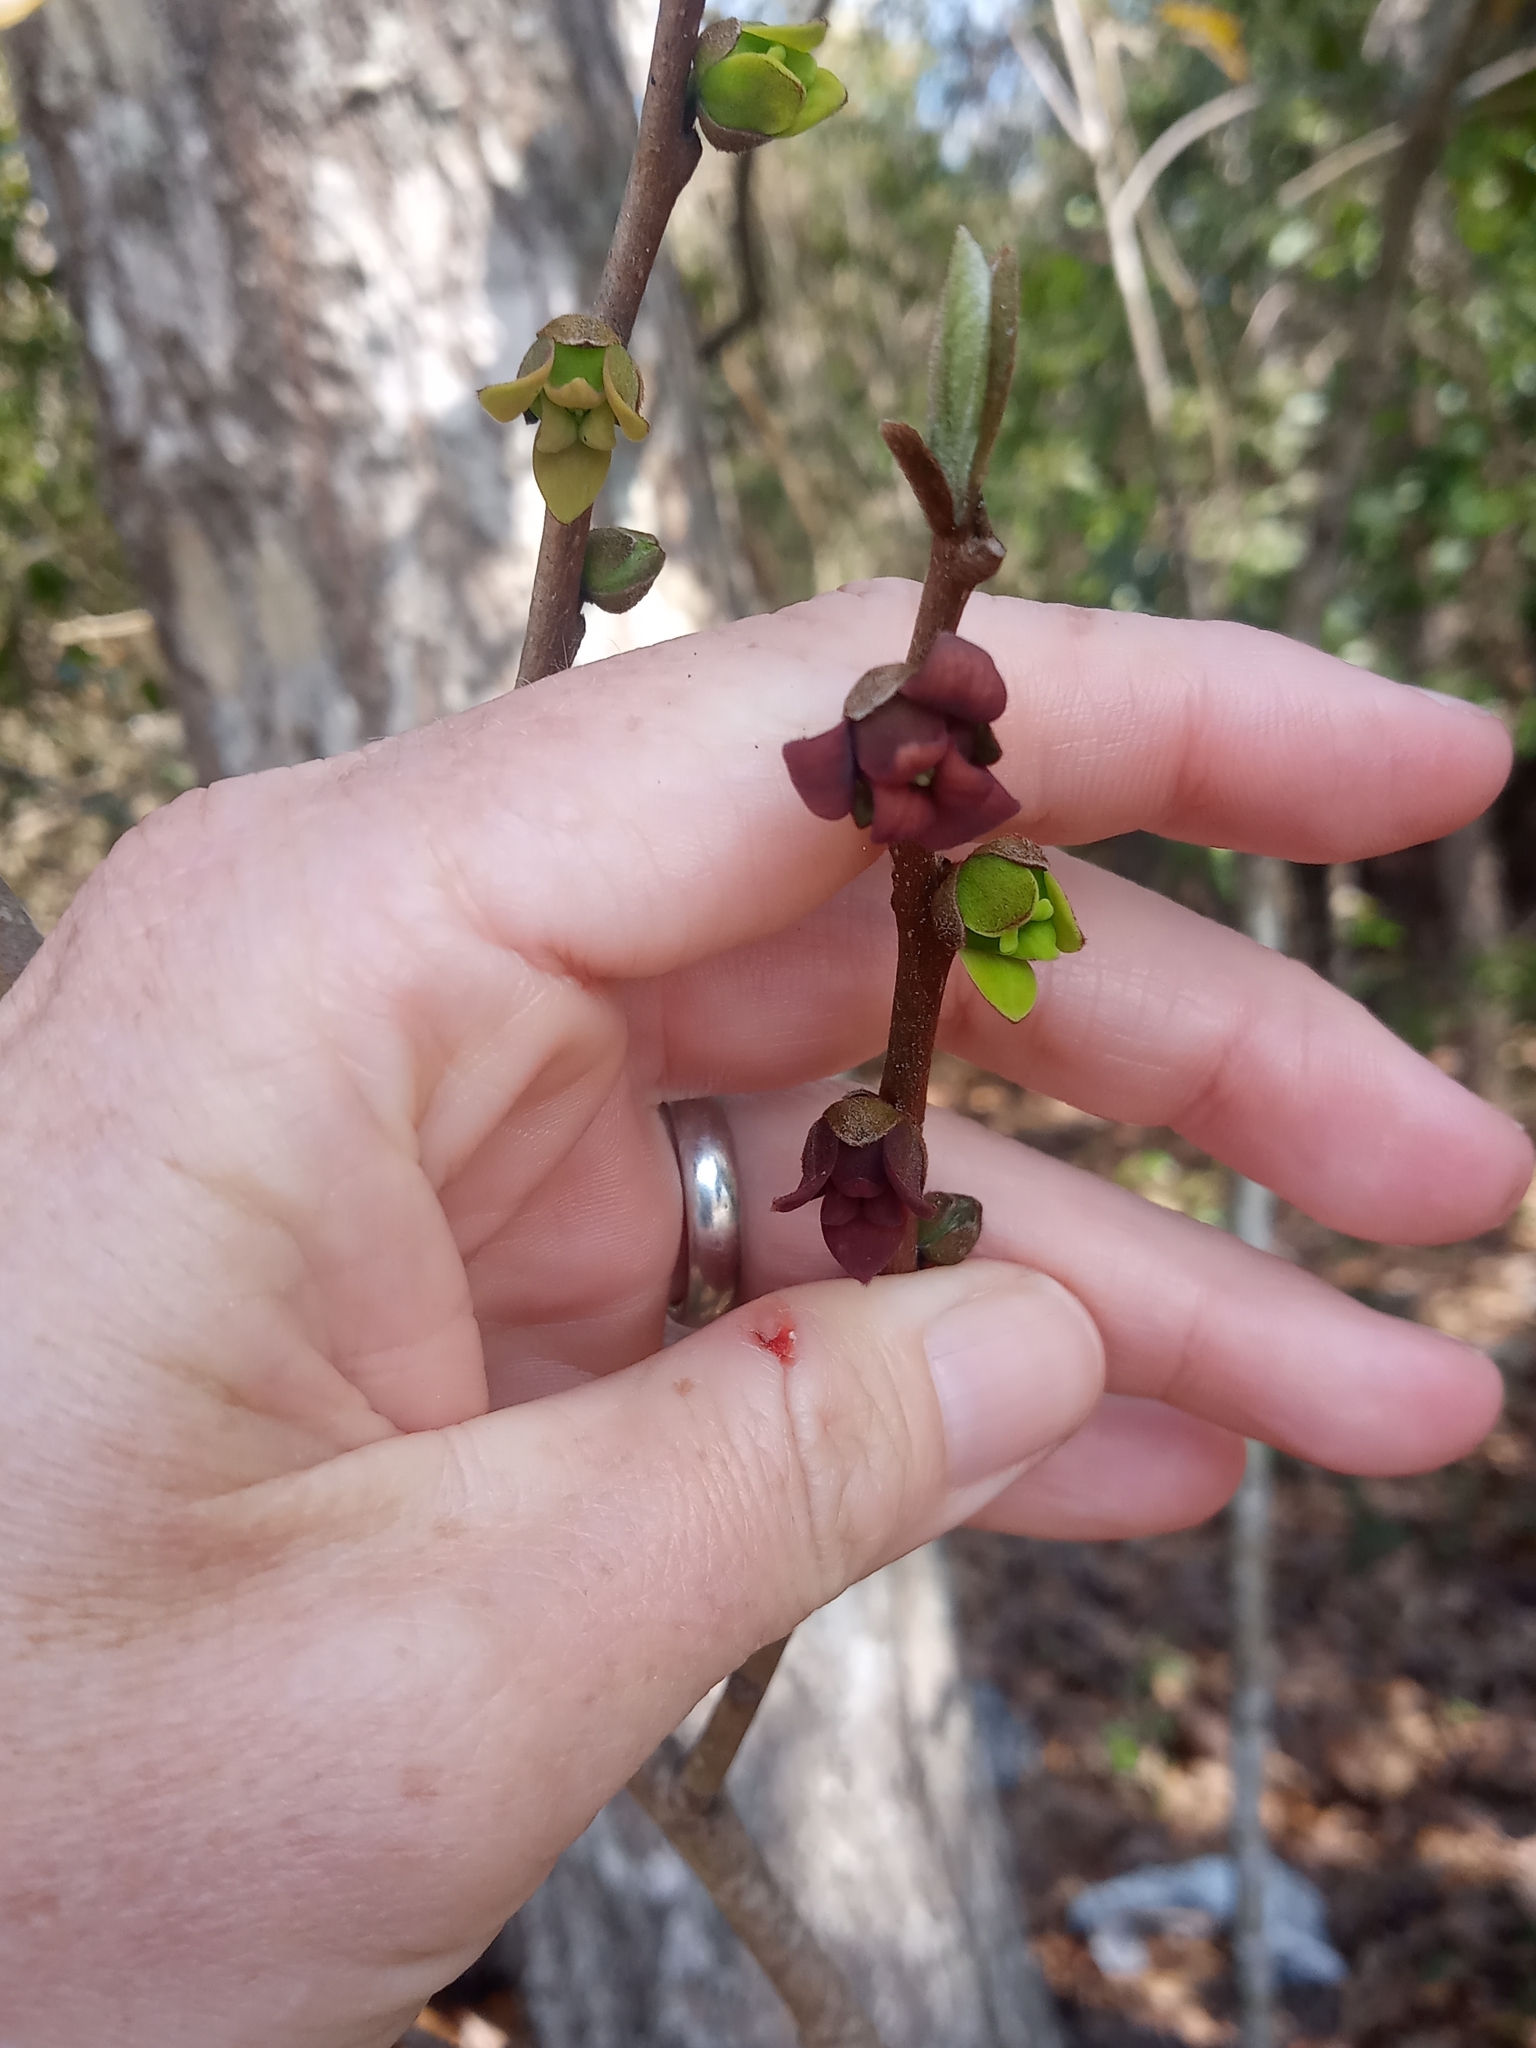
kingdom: Plantae
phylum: Tracheophyta
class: Magnoliopsida
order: Magnoliales
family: Annonaceae
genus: Asimina
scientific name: Asimina parviflora
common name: Dwarf pawpaw
